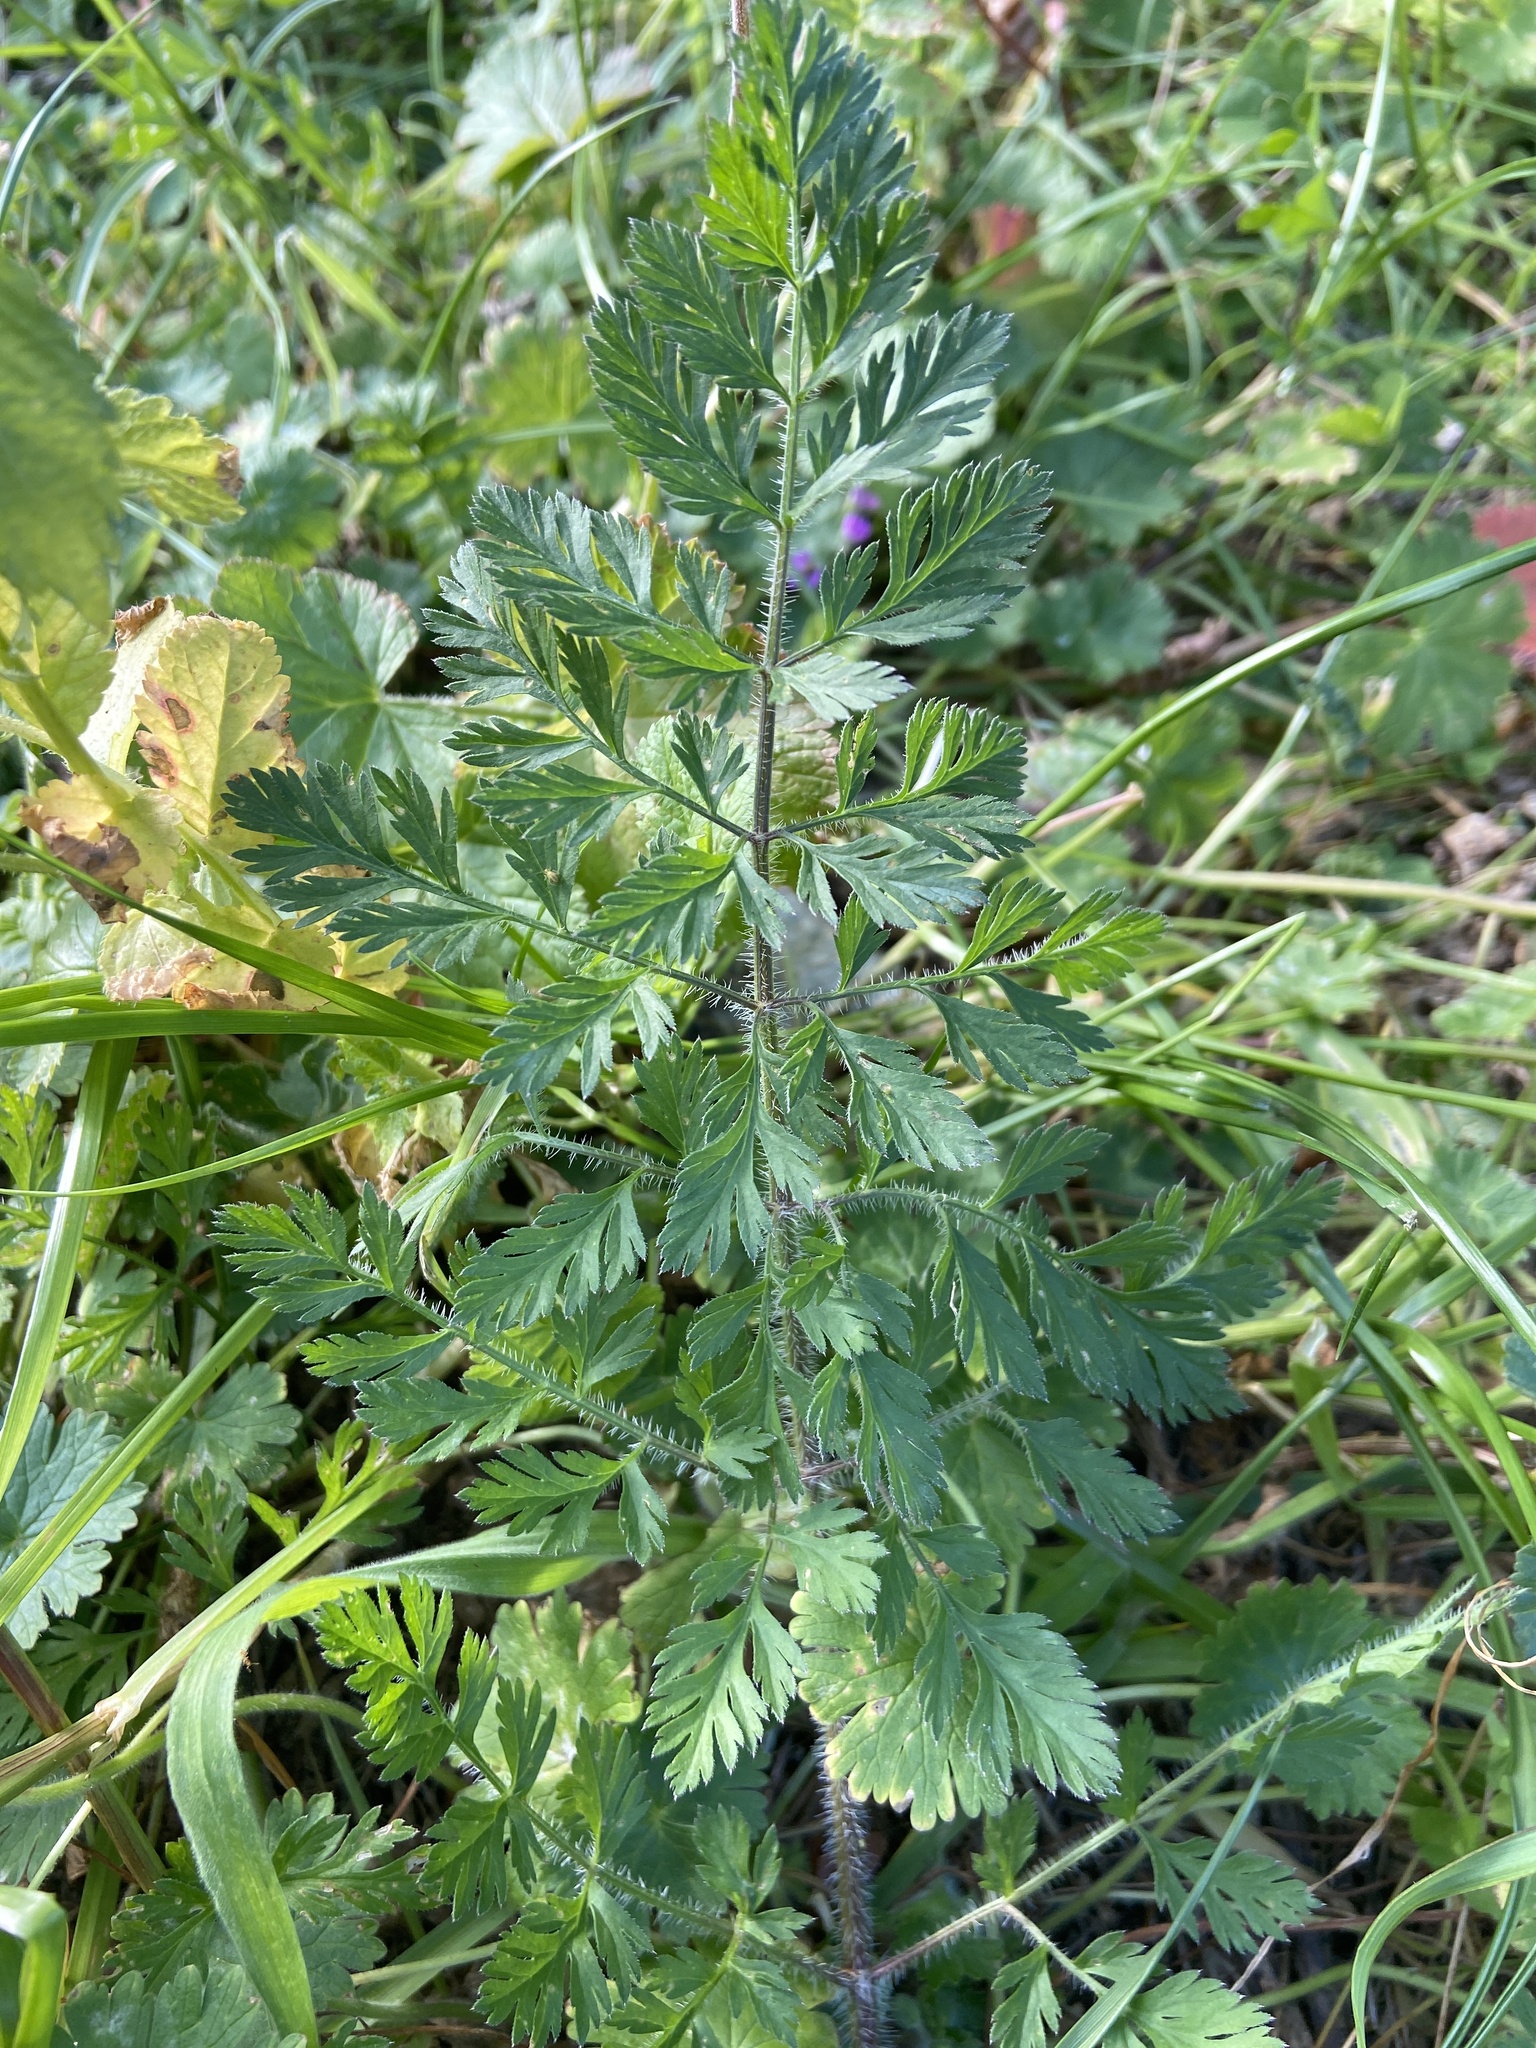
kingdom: Plantae
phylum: Tracheophyta
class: Magnoliopsida
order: Apiales
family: Apiaceae
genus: Daucus
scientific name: Daucus carota
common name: Wild carrot
